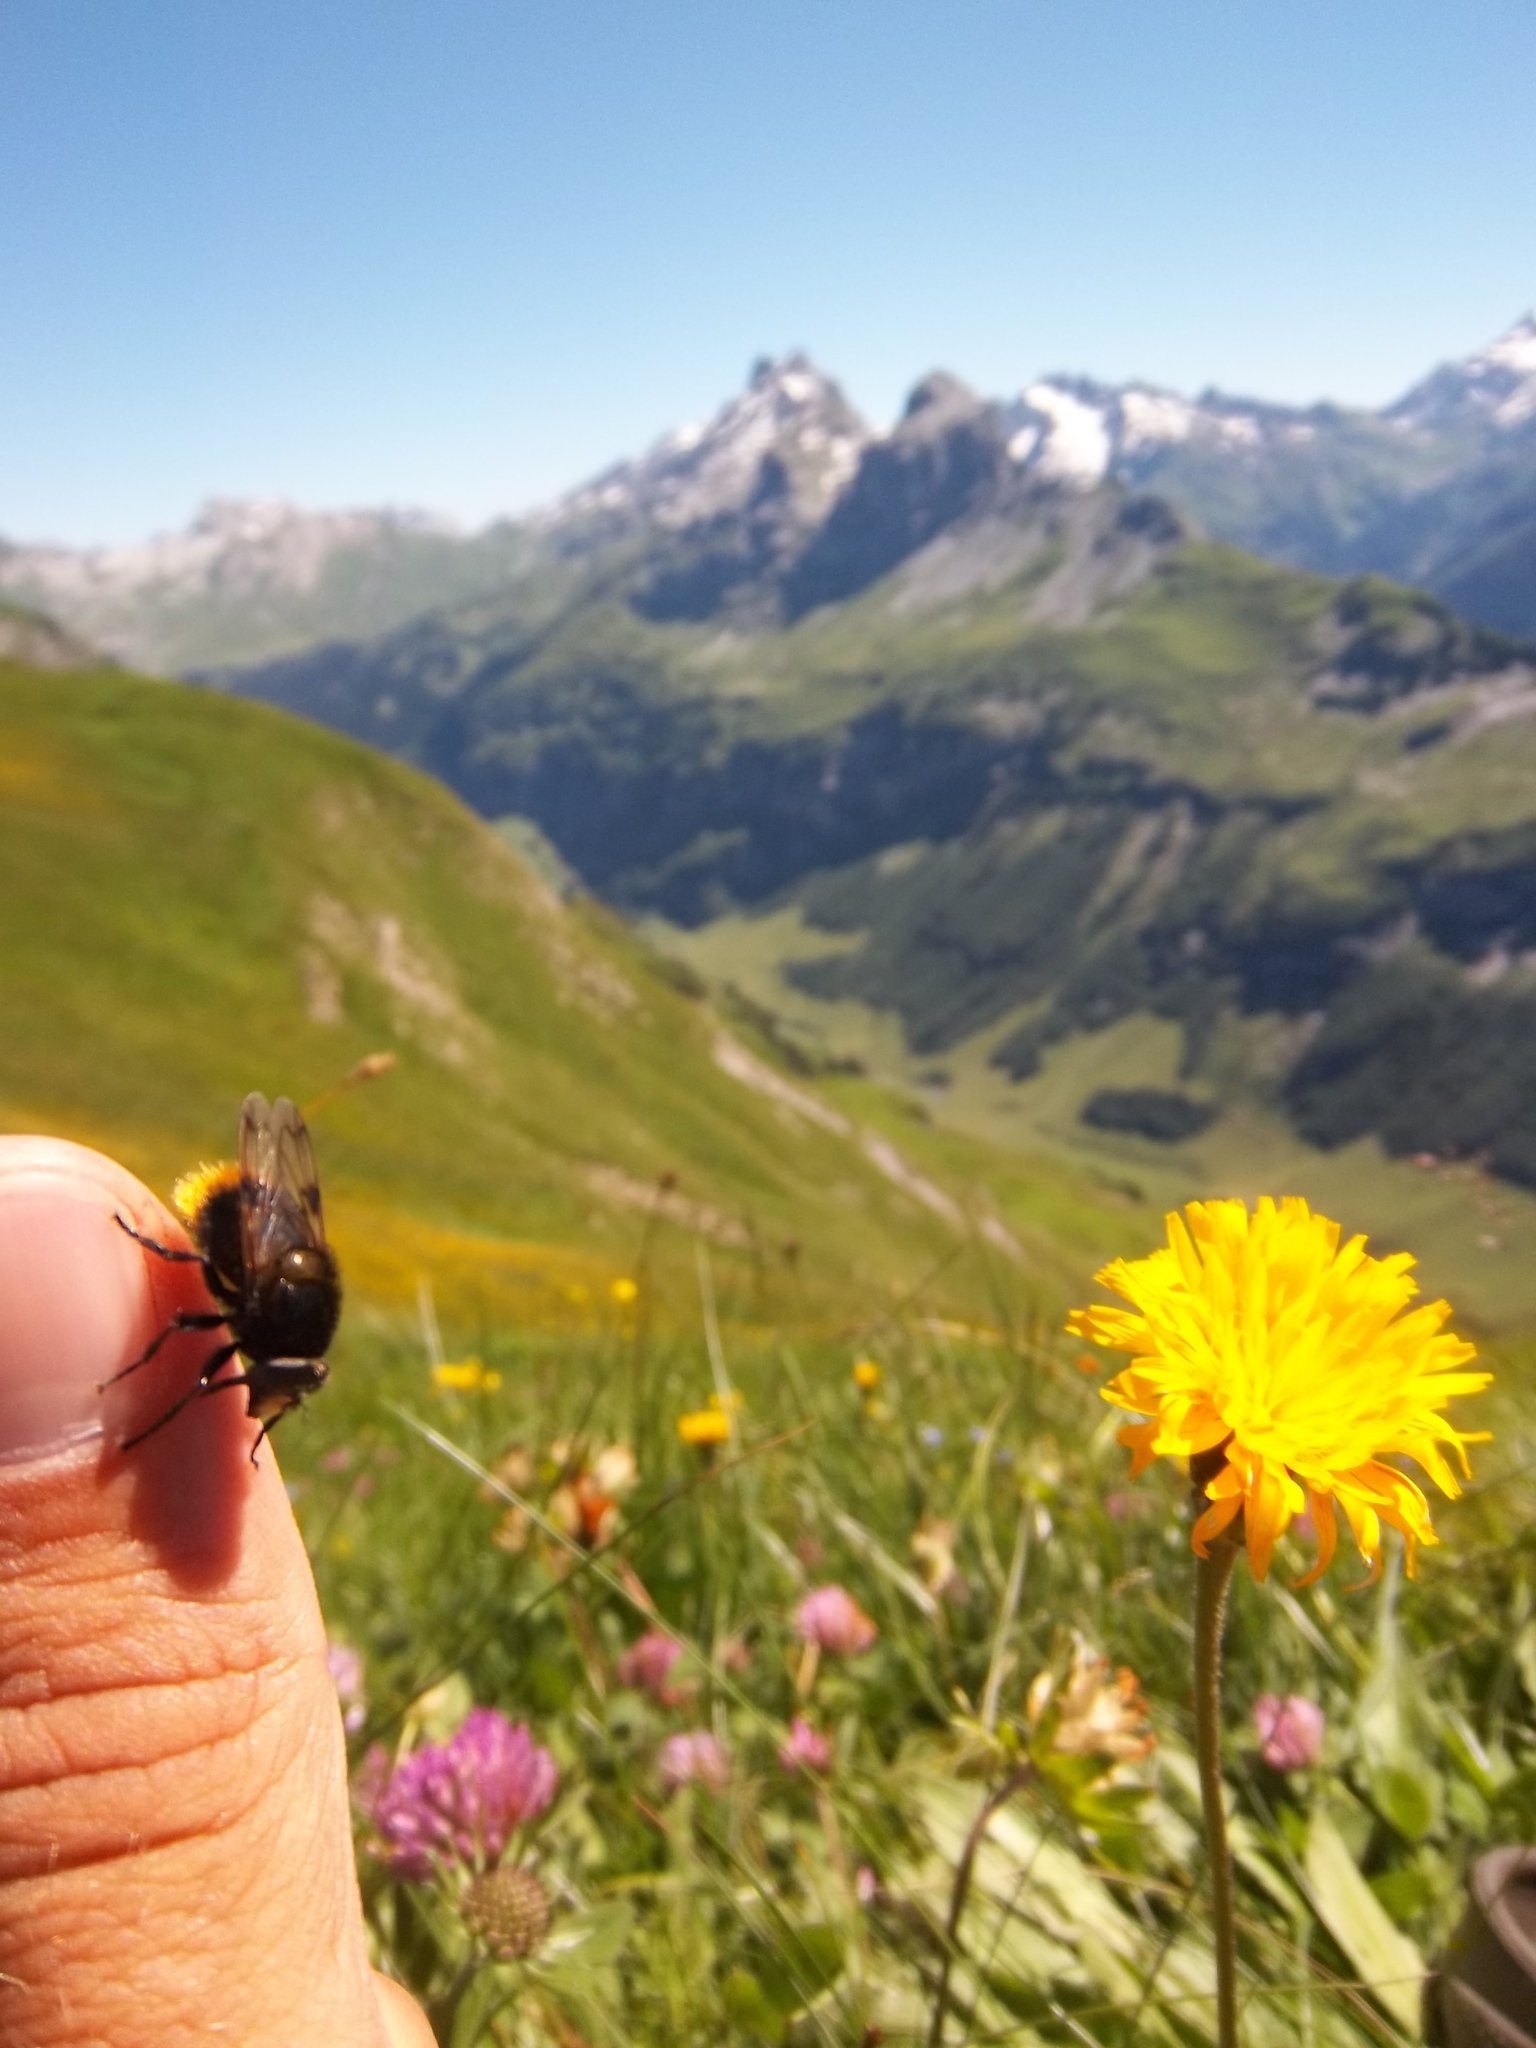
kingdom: Animalia
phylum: Arthropoda
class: Insecta
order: Diptera
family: Syrphidae
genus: Volucella
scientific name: Volucella bombylans
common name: Bumble bee hover fly
